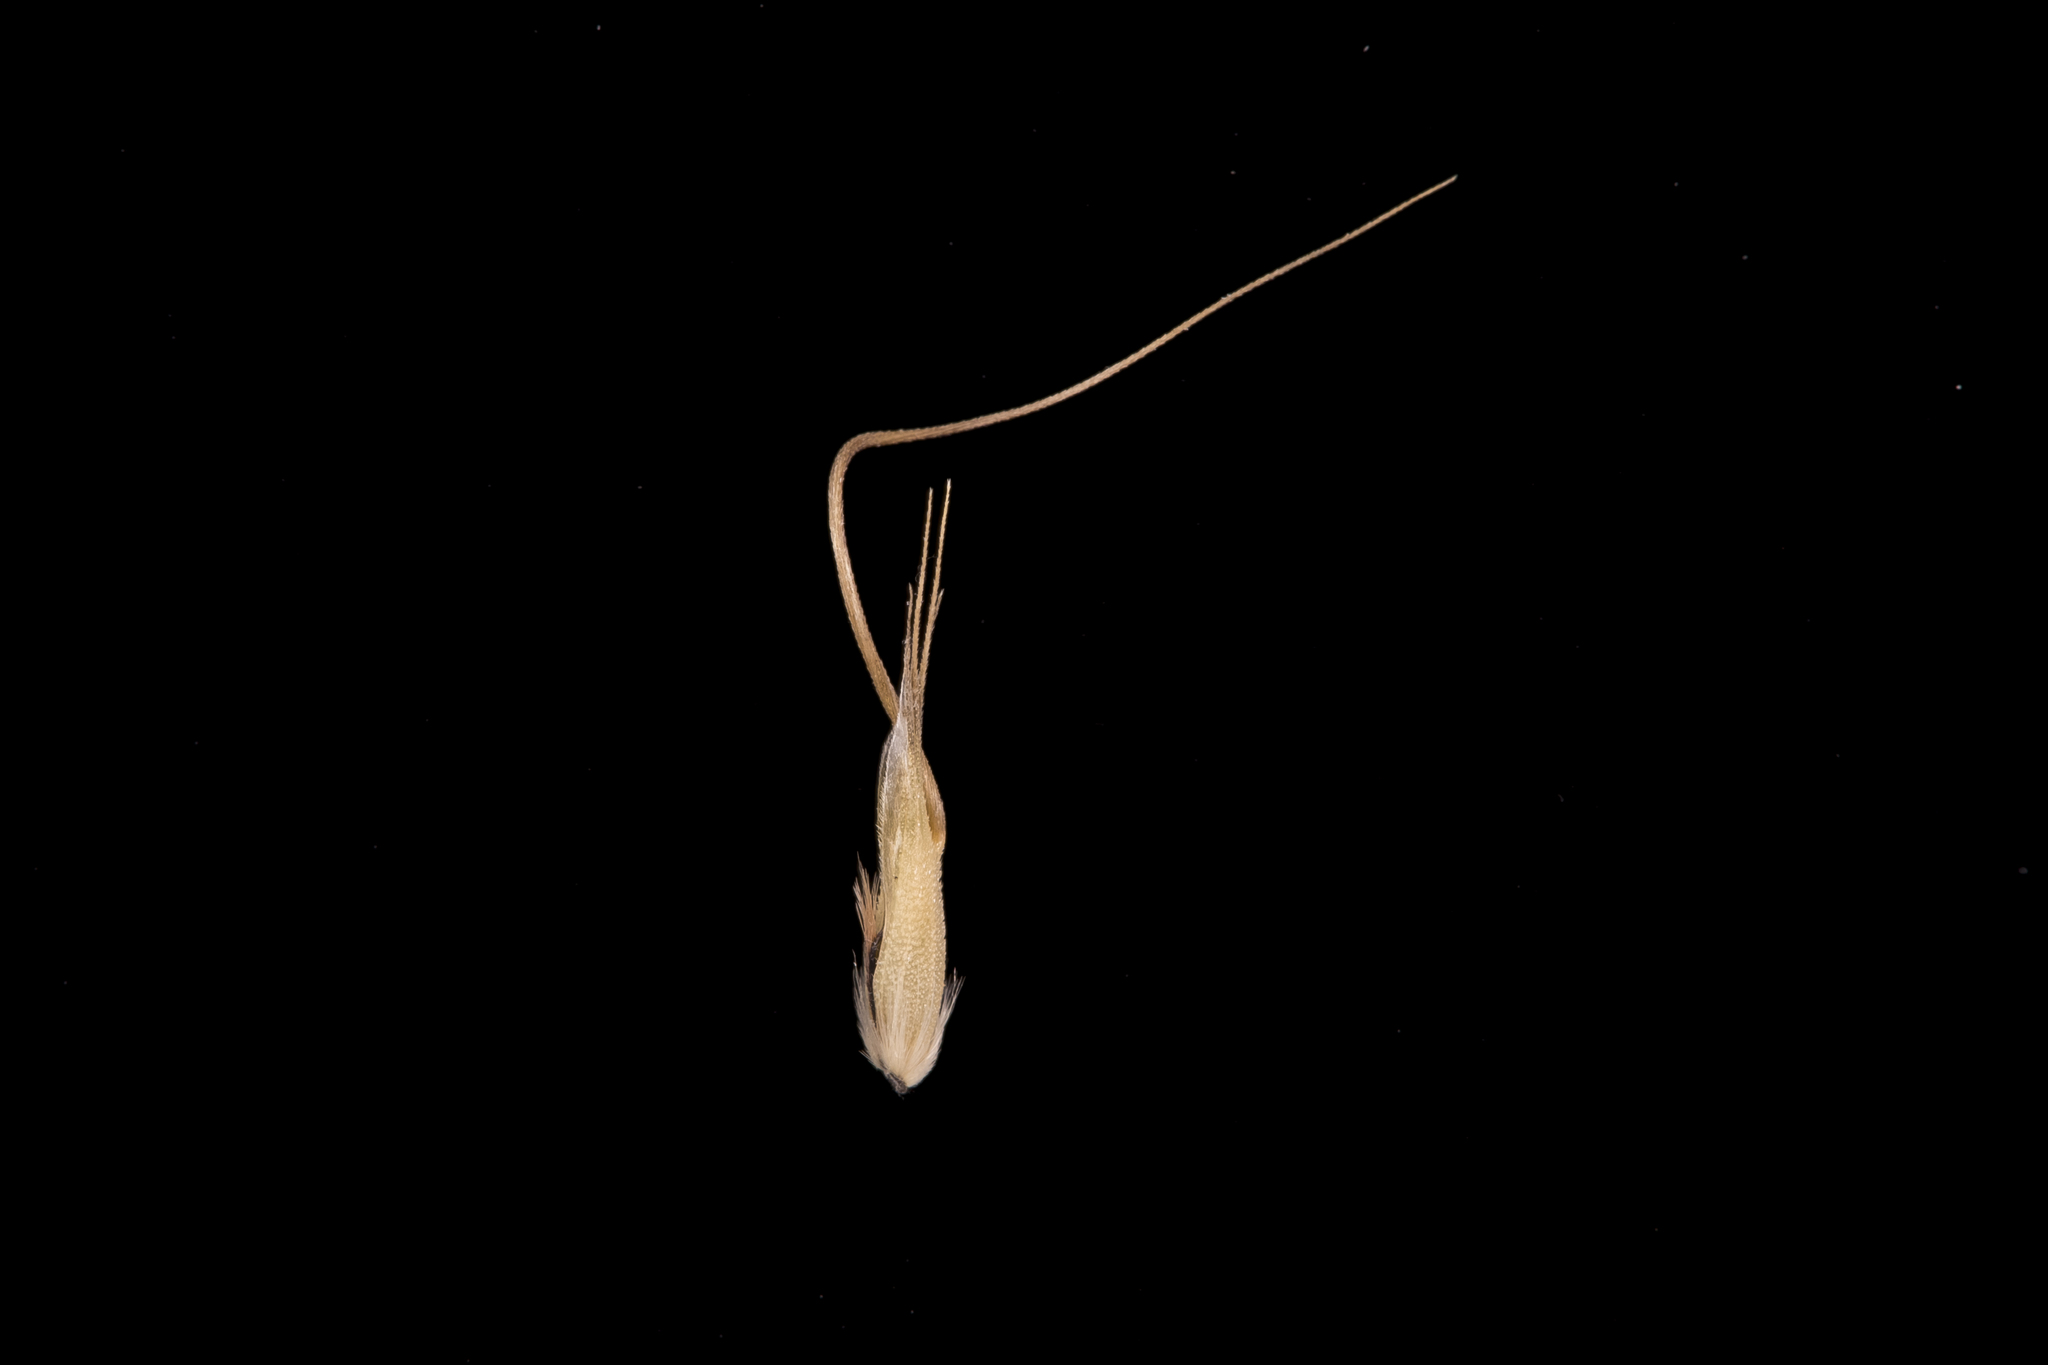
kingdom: Plantae
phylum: Tracheophyta
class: Liliopsida
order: Poales
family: Poaceae
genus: Amphibromus
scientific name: Amphibromus archeri
